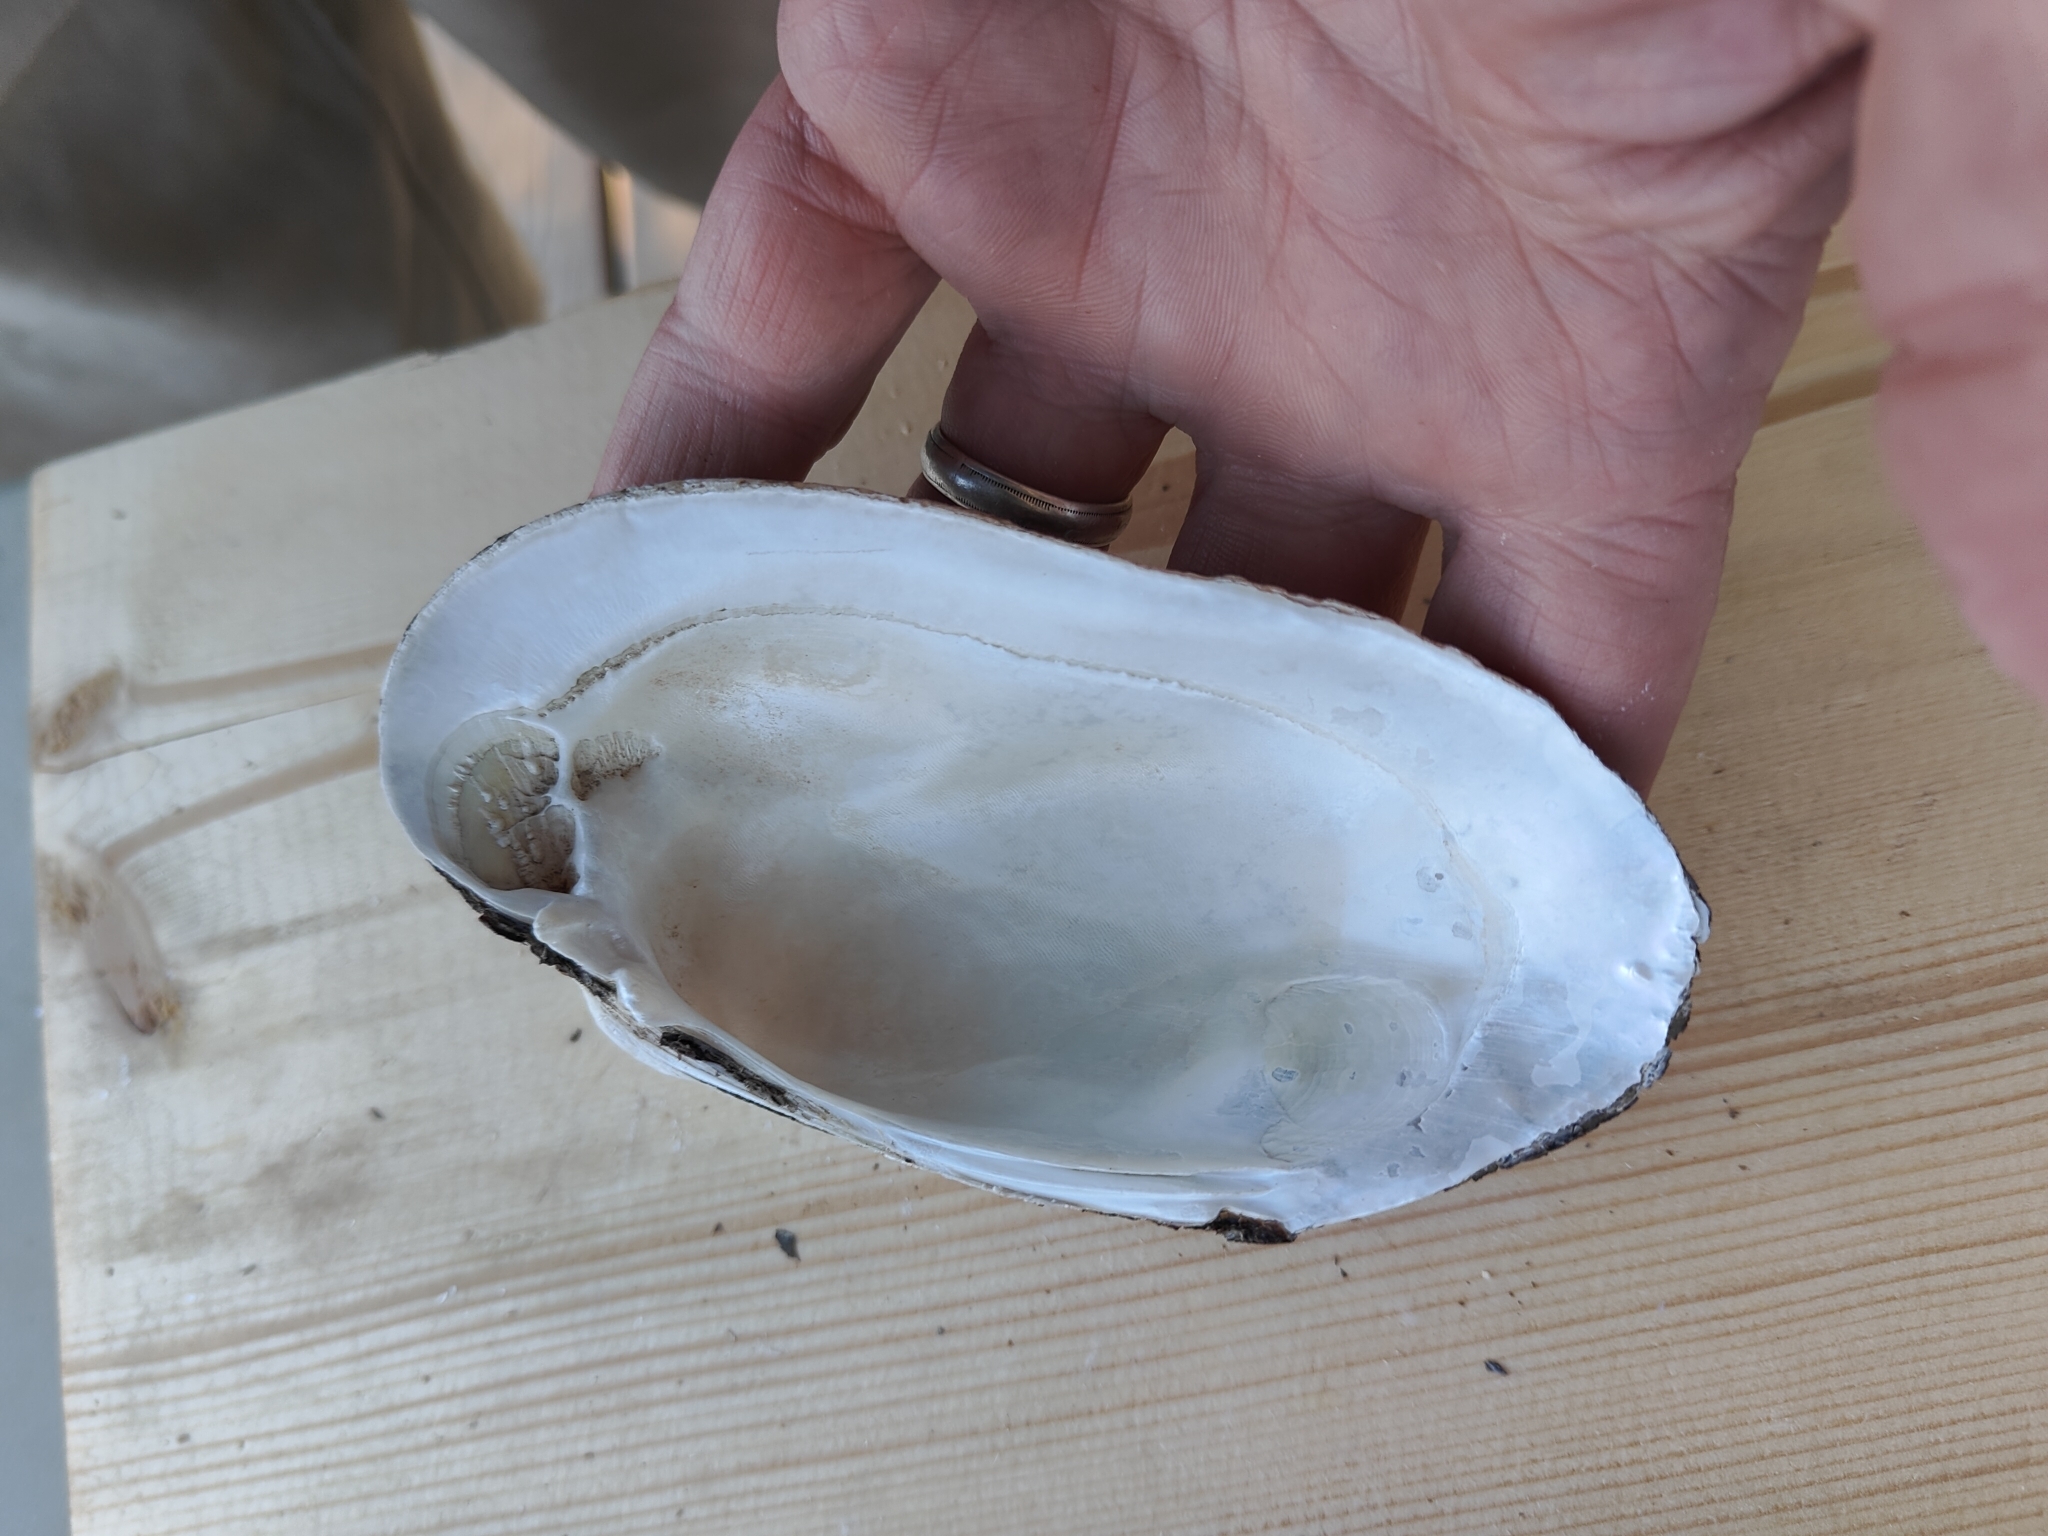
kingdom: Animalia
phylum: Mollusca
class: Bivalvia
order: Unionida
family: Unionidae
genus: Lampsilis
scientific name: Lampsilis siliquoidea
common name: Fatmucket
